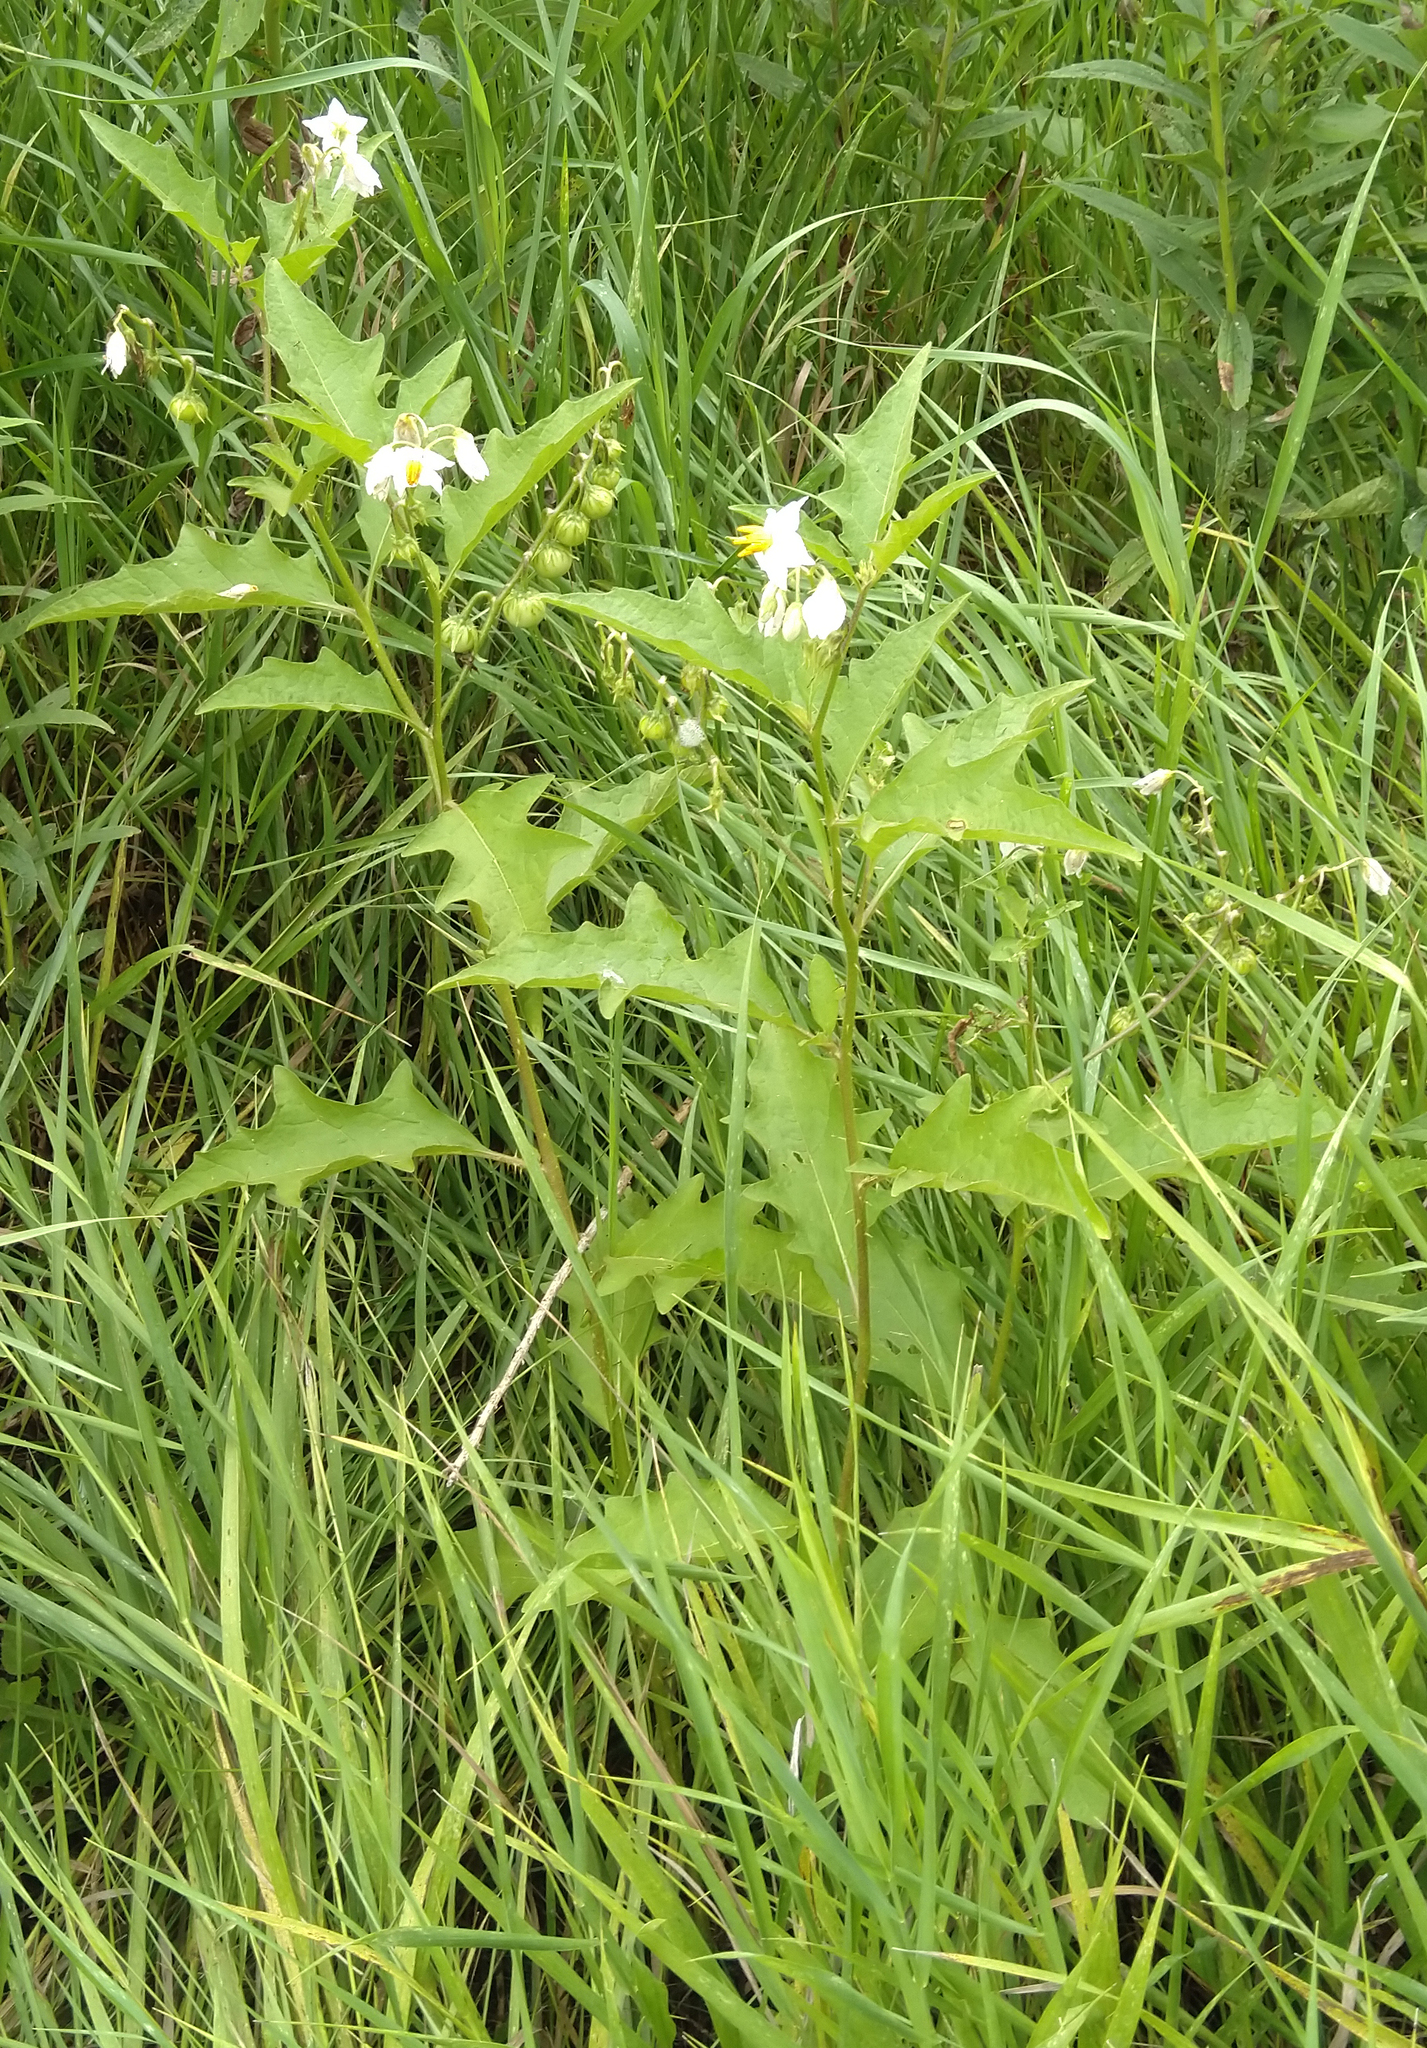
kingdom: Plantae
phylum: Tracheophyta
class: Magnoliopsida
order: Solanales
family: Solanaceae
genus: Solanum
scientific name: Solanum carolinense
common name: Horse-nettle
